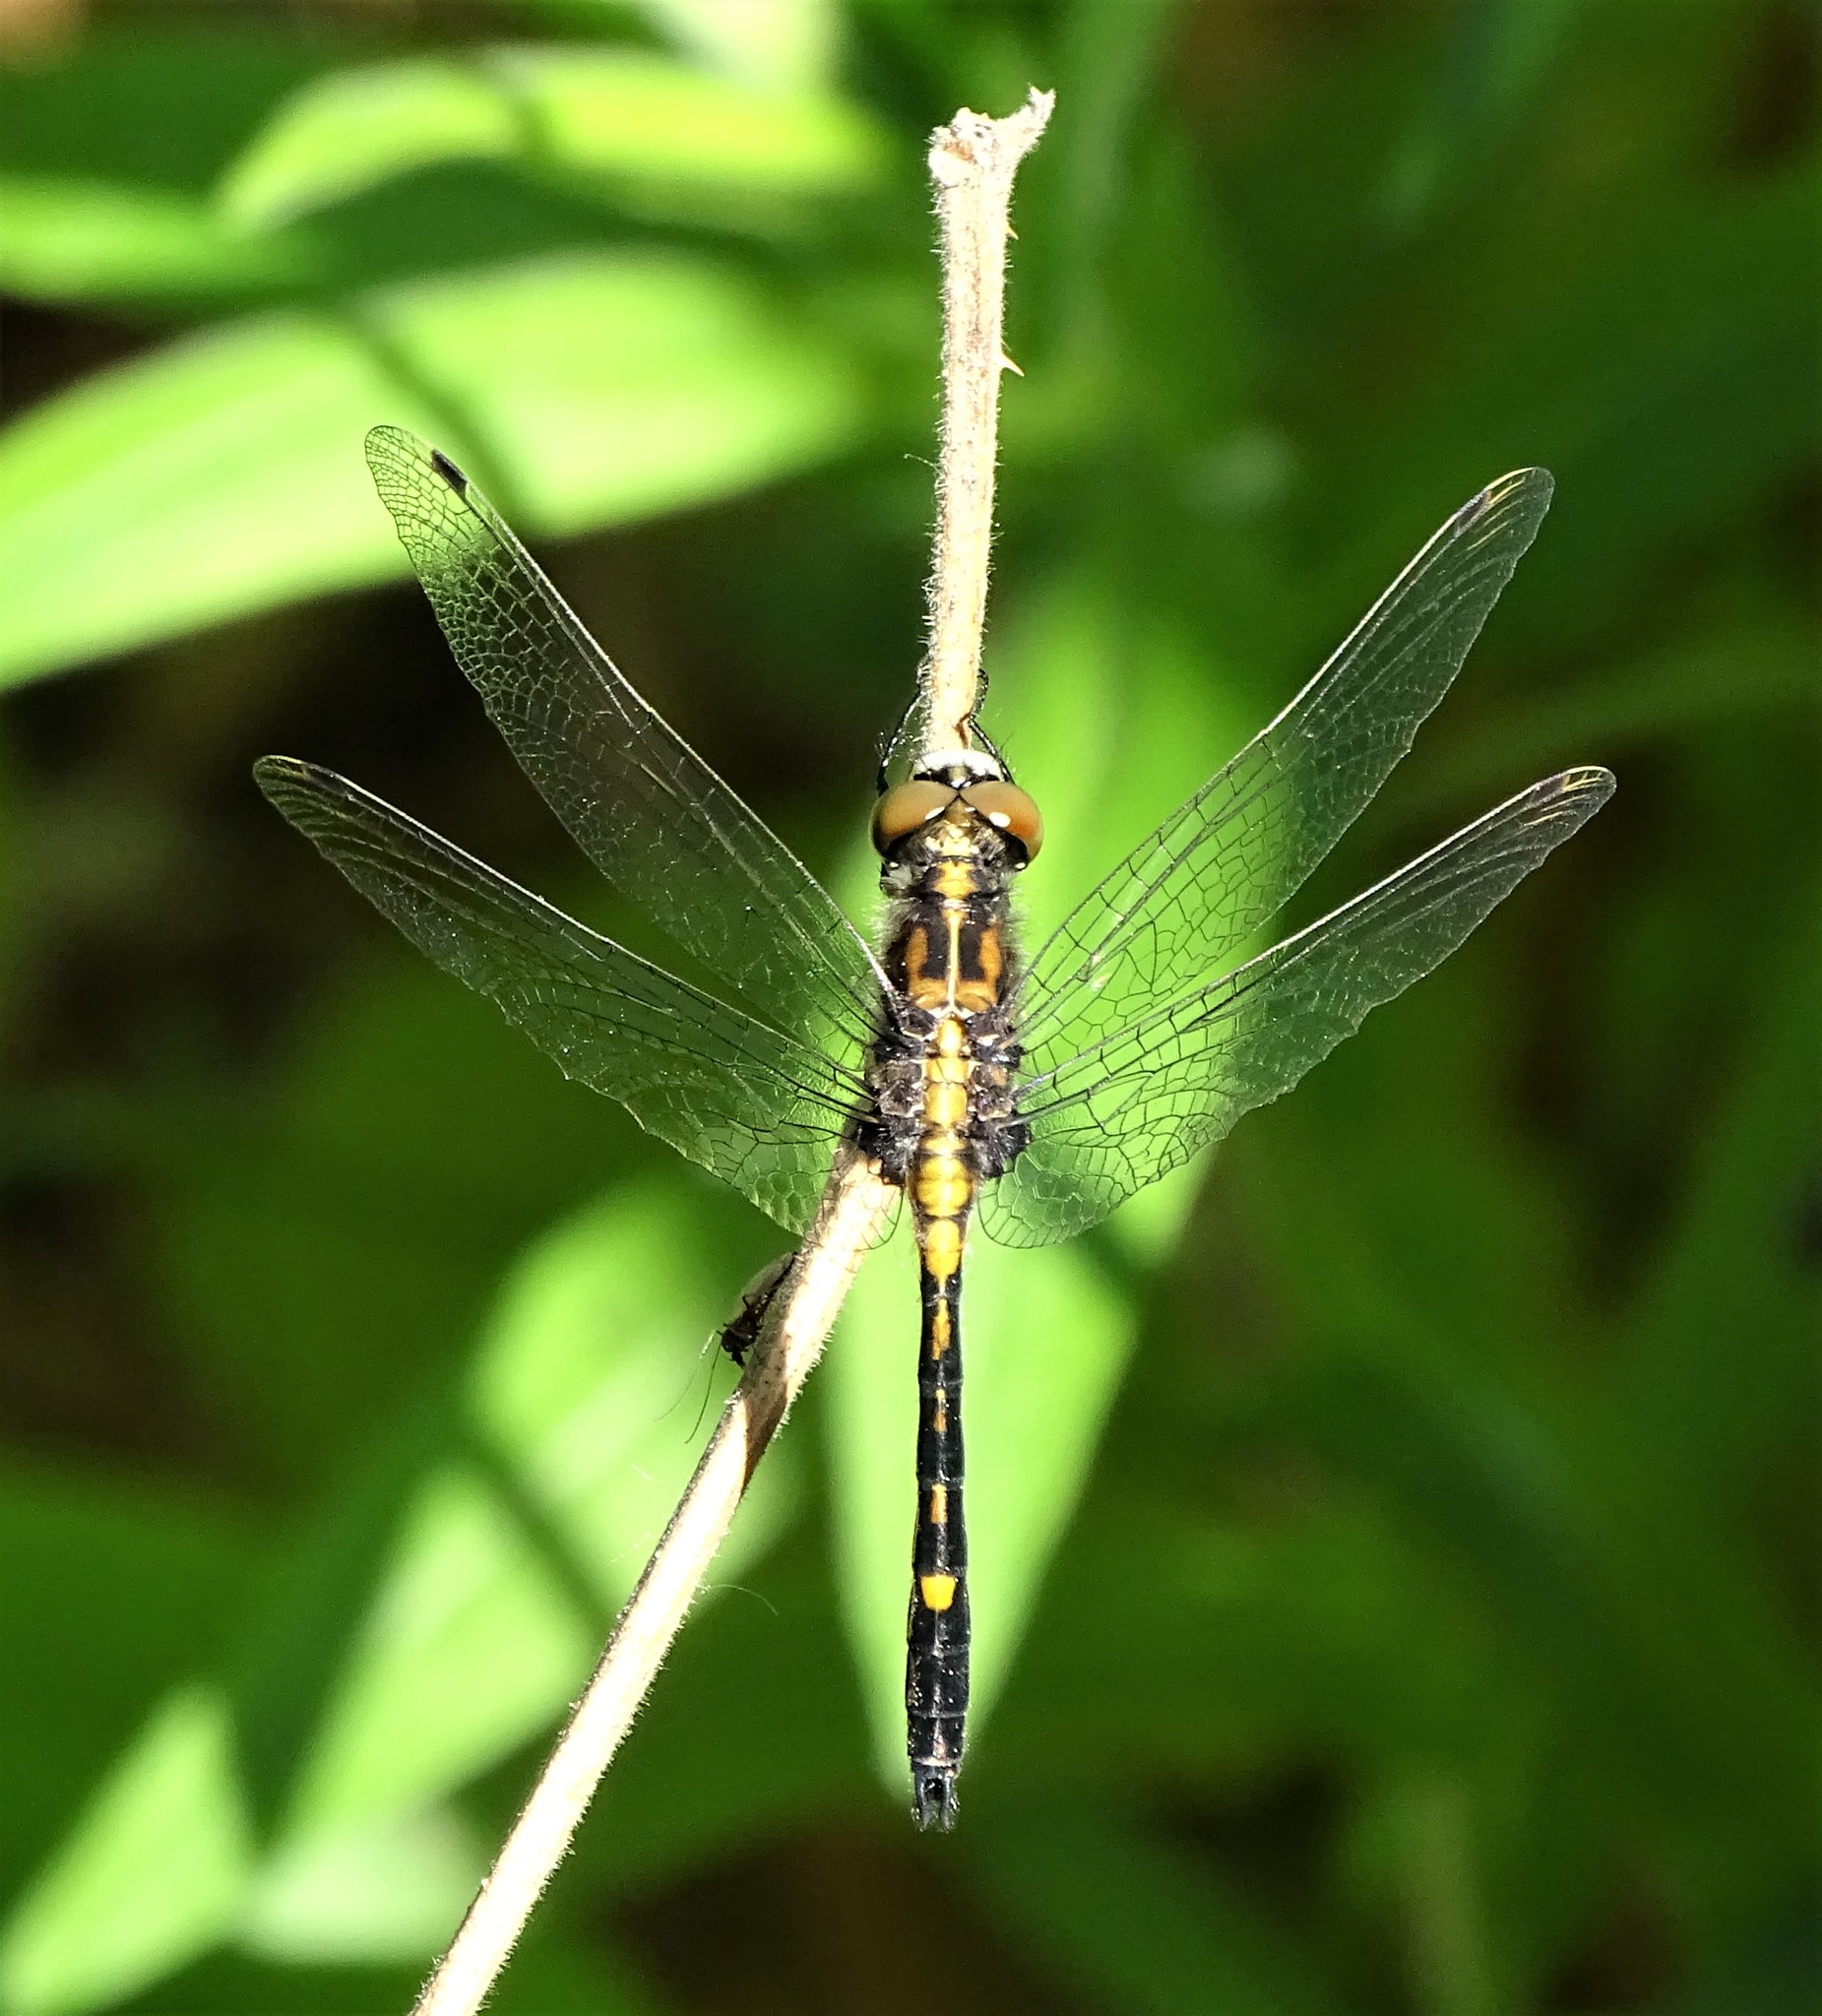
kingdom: Animalia
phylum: Arthropoda
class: Insecta
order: Odonata
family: Libellulidae
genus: Leucorrhinia
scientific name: Leucorrhinia intacta
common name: Dot-tailed whiteface
